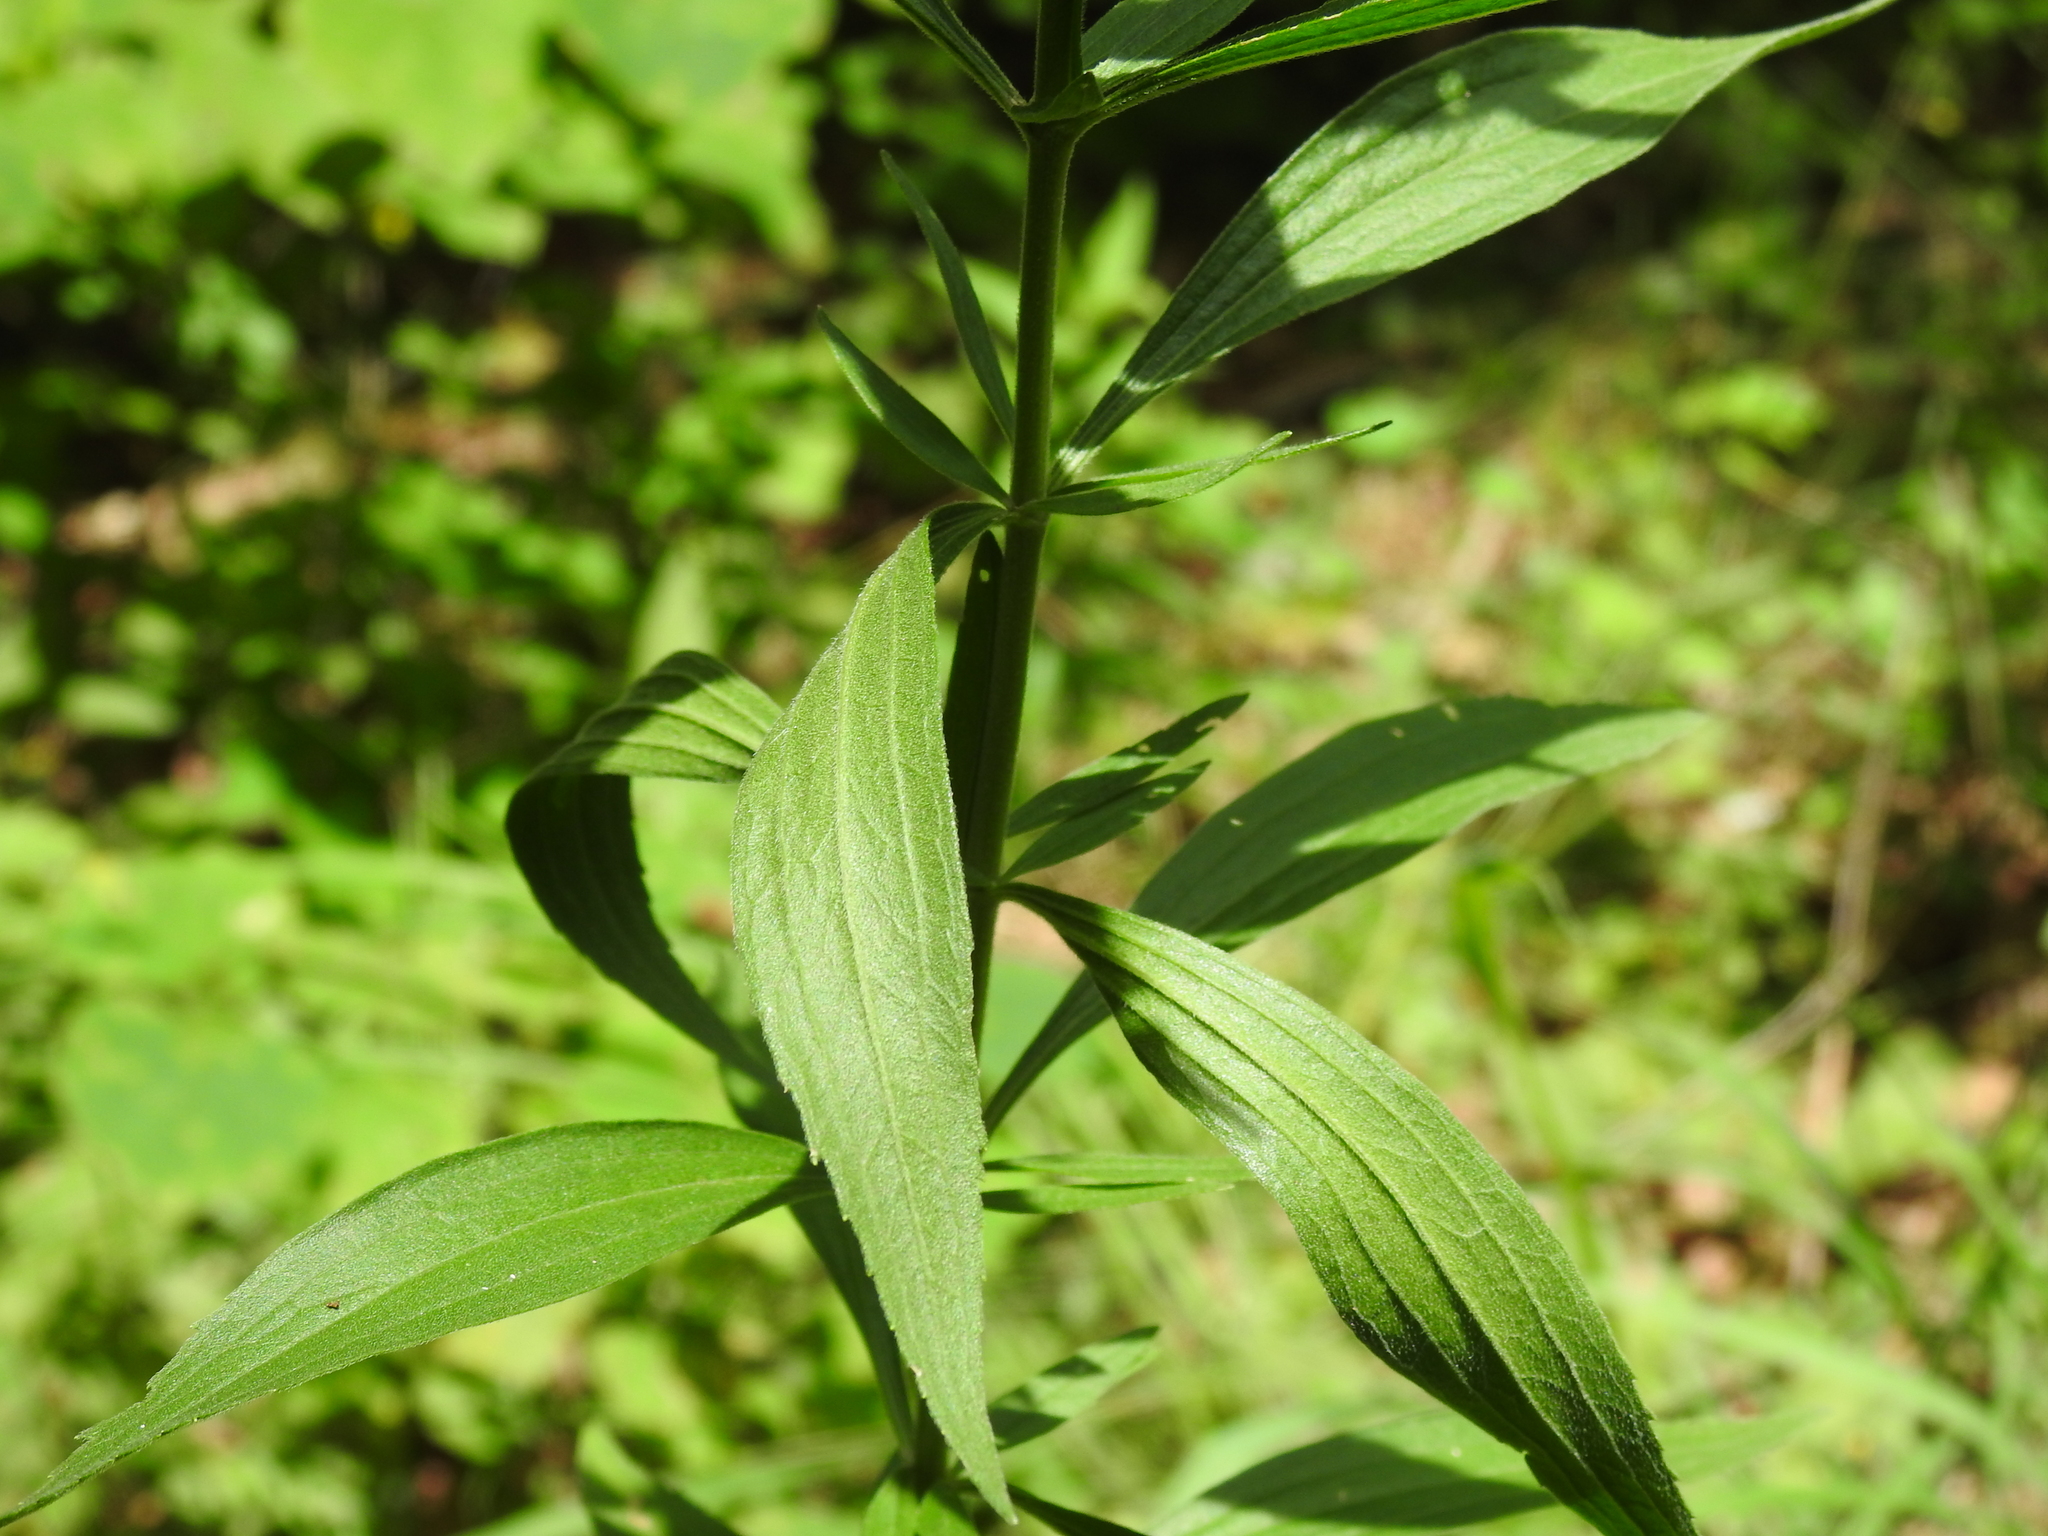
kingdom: Plantae
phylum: Tracheophyta
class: Magnoliopsida
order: Asterales
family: Asteraceae
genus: Eupatorium
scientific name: Eupatorium altissimum
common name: Tall thoroughwort
